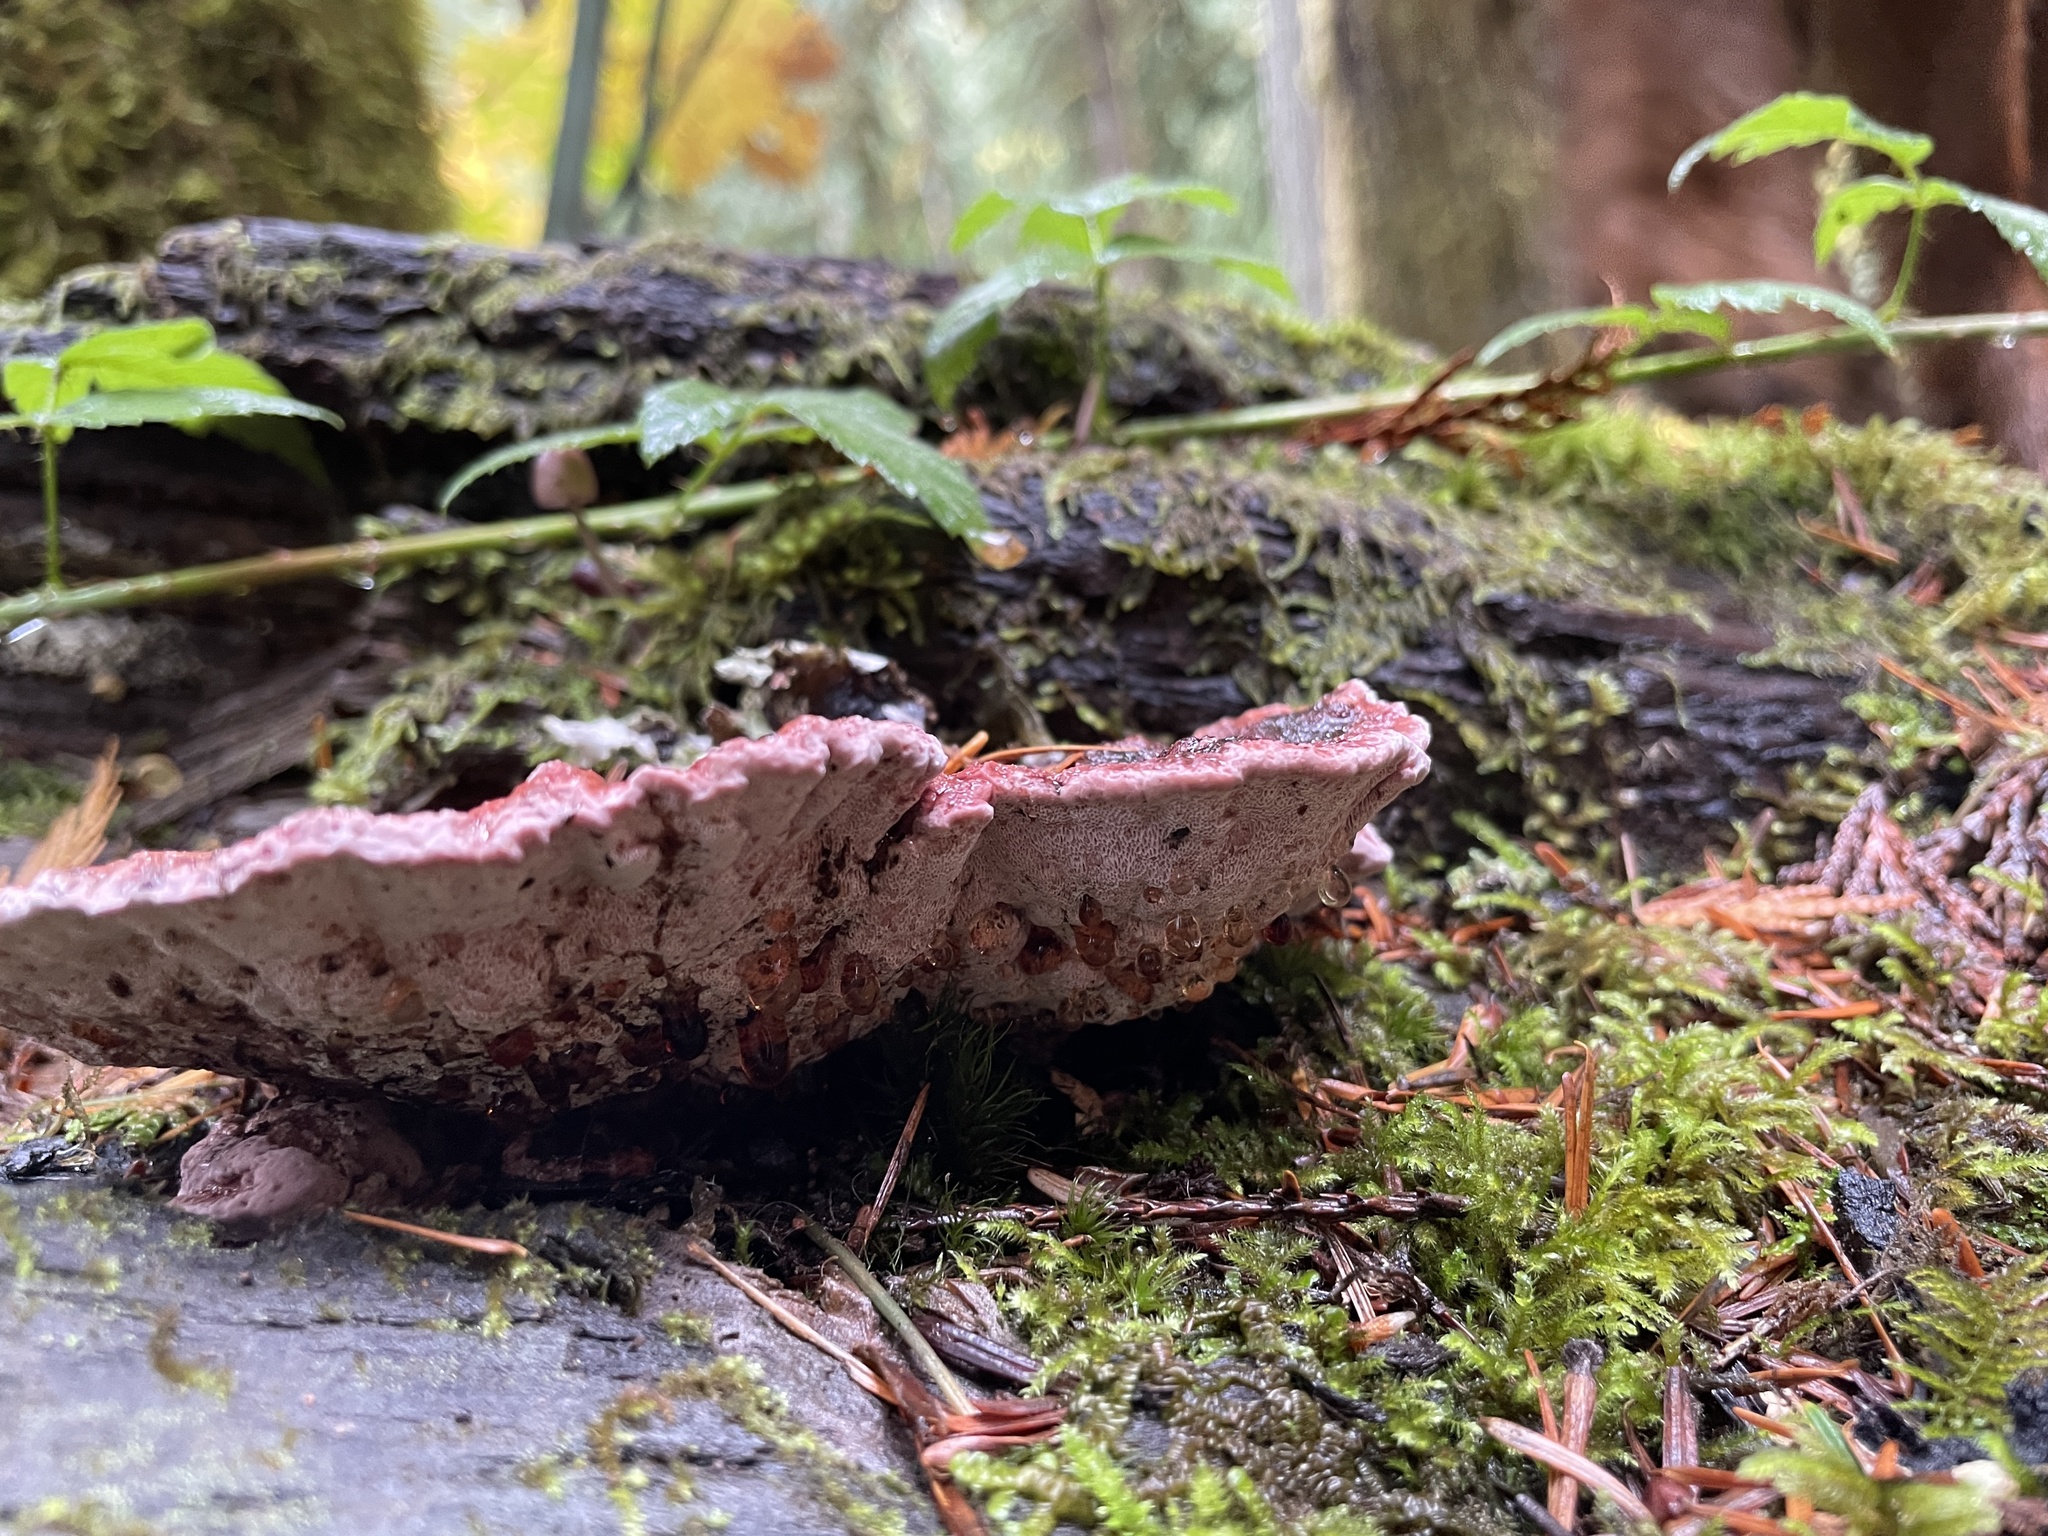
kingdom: Fungi
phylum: Basidiomycota
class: Agaricomycetes
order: Polyporales
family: Fomitopsidaceae
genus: Rhodofomes
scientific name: Rhodofomes cajanderi
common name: Rosy conk
